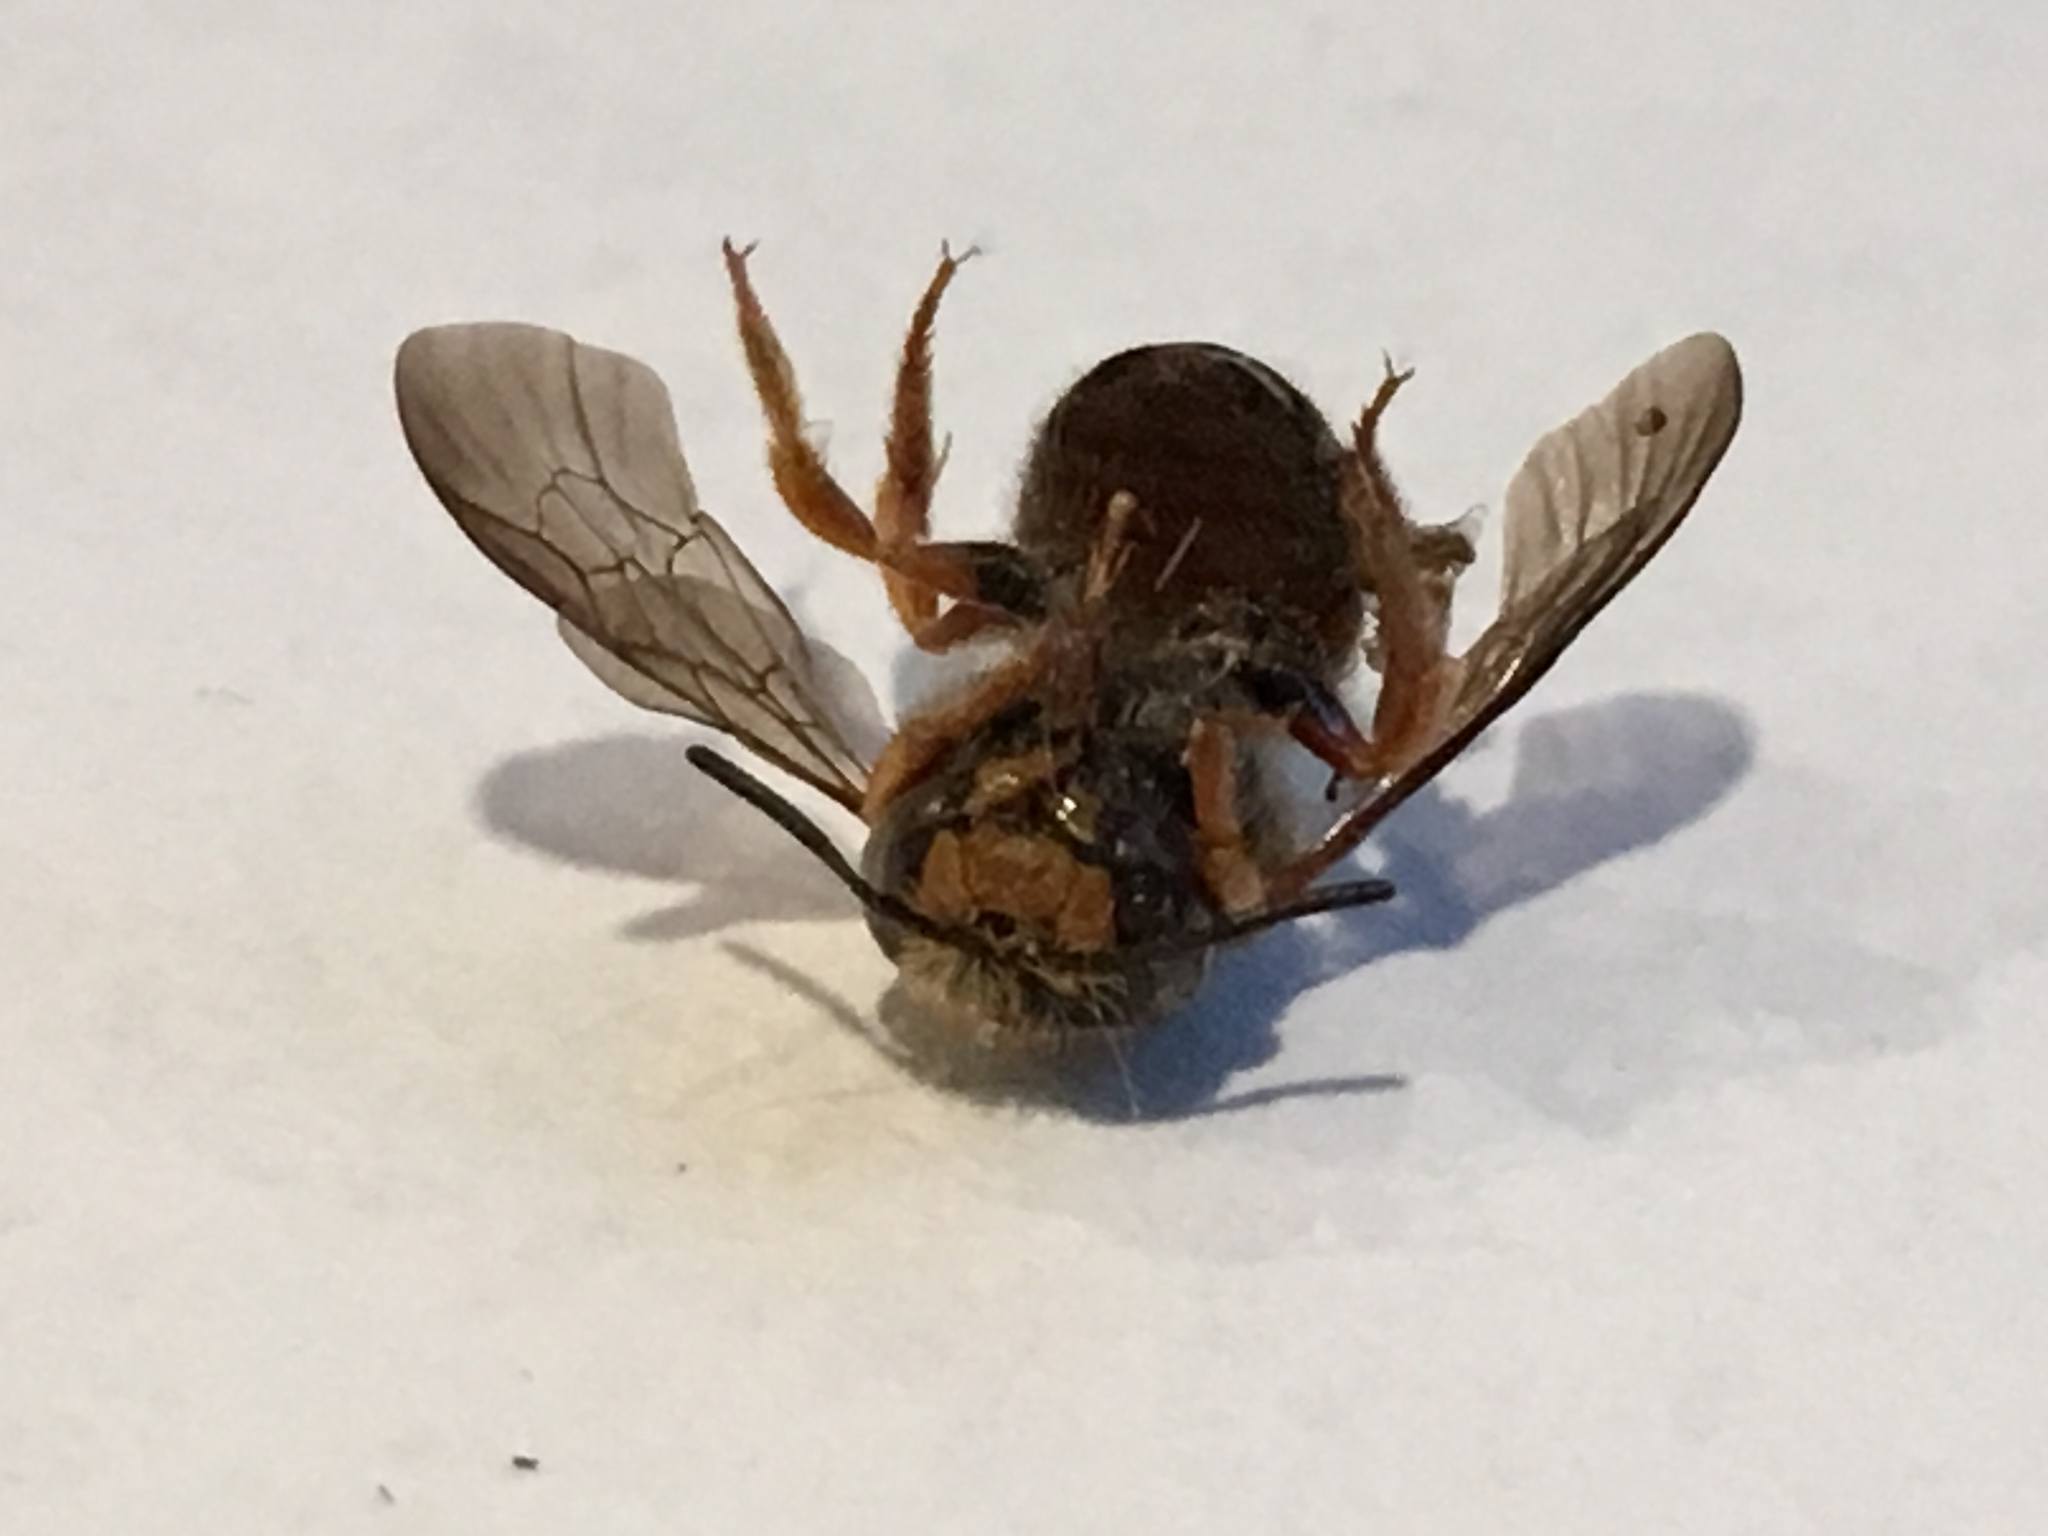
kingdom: Animalia
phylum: Arthropoda
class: Insecta
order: Hymenoptera
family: Megachilidae
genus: Anthidium
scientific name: Anthidium oblongatum
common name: Oblong wool carder bee
